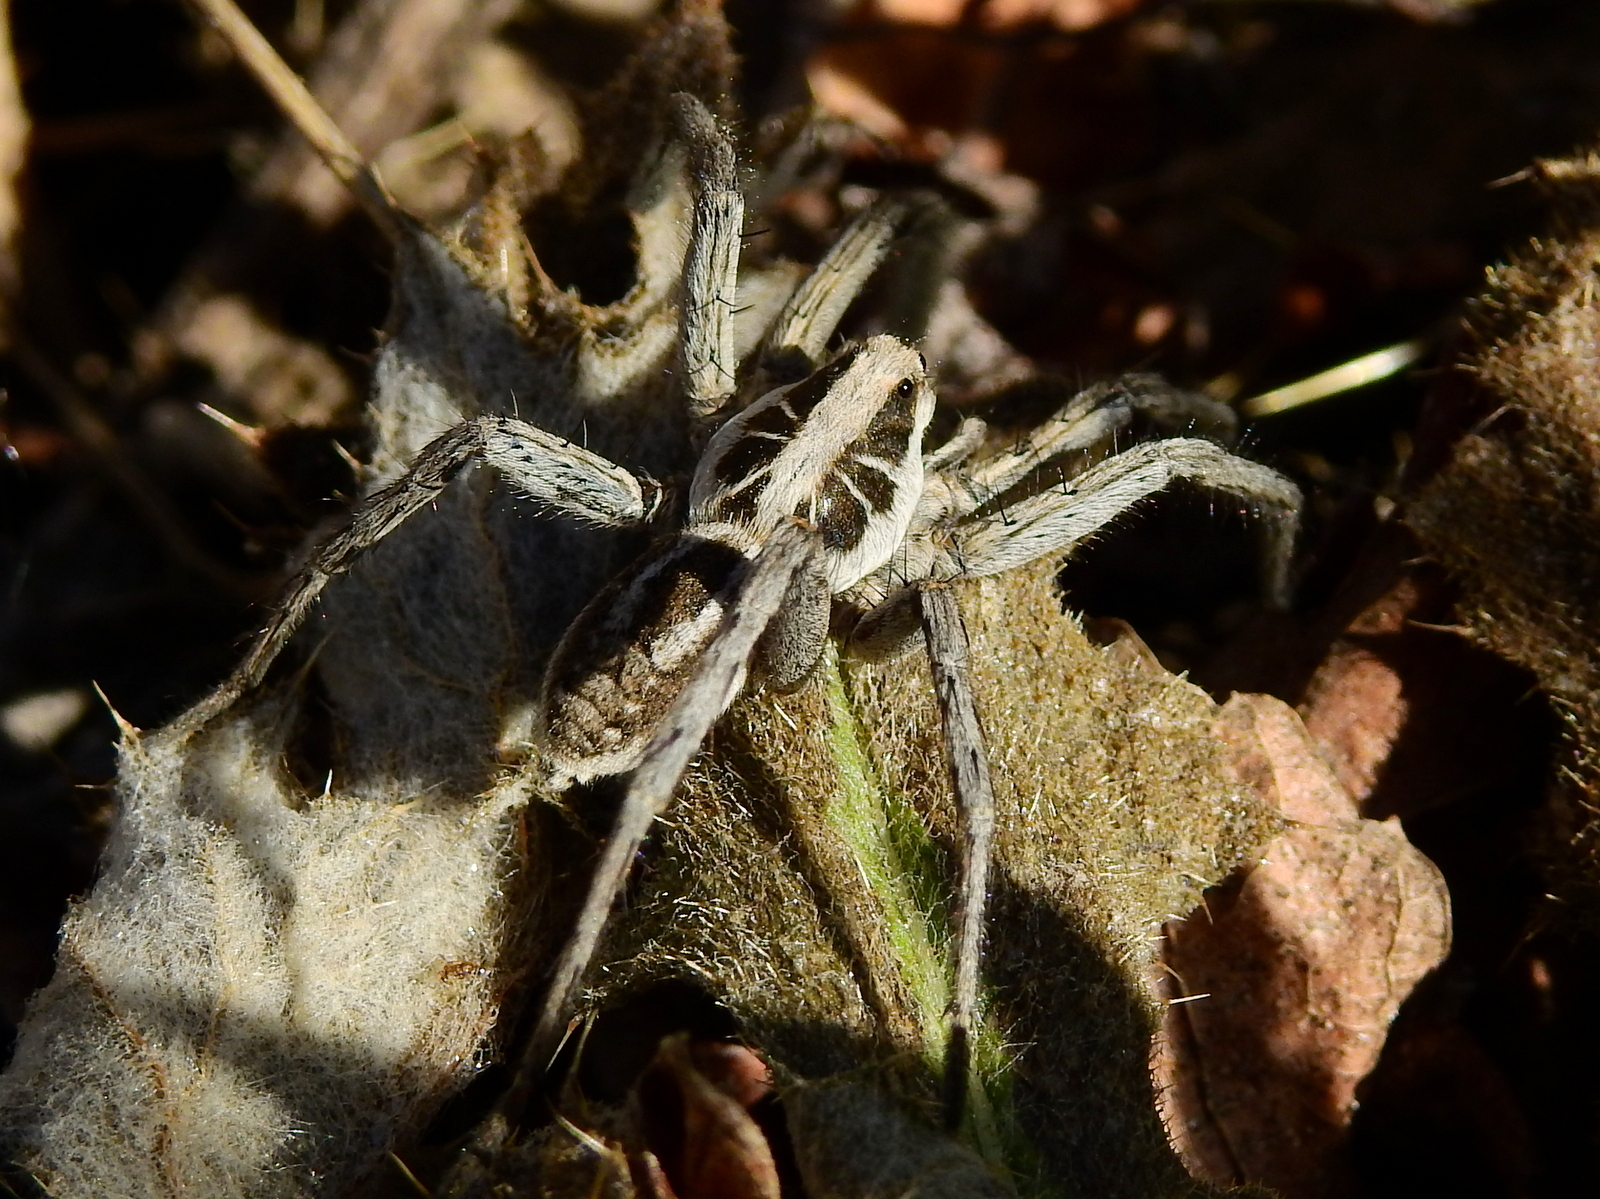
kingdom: Animalia
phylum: Arthropoda
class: Arachnida
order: Araneae
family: Lycosidae
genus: Schizocosa
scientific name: Schizocosa malitiosa
